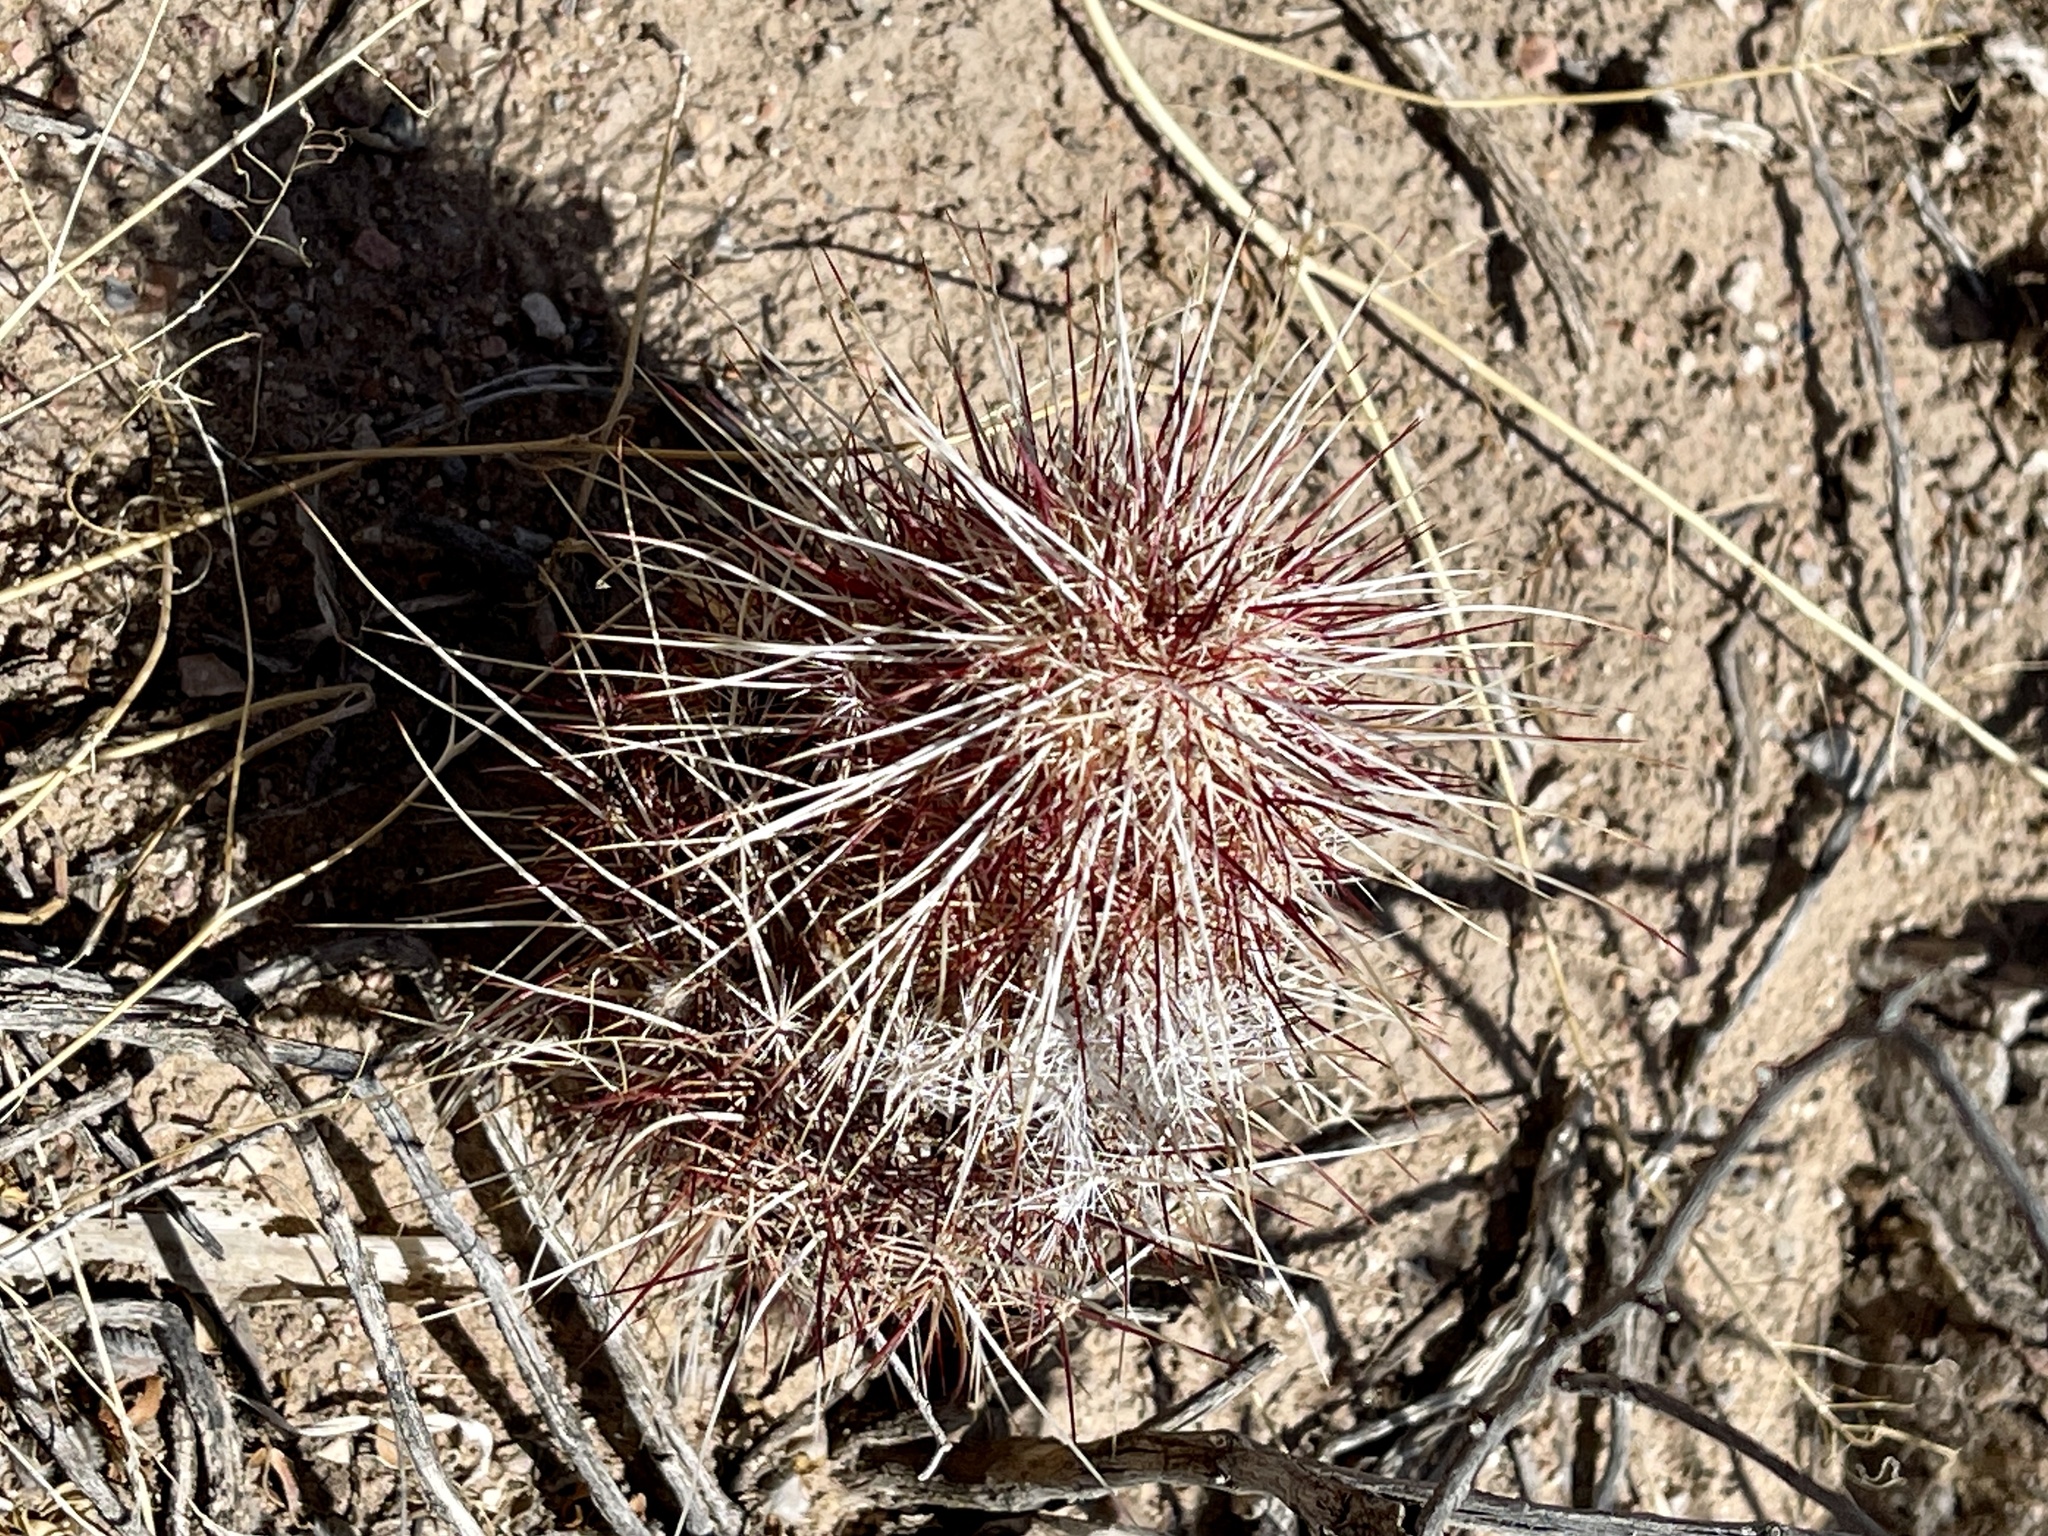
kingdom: Plantae
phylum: Tracheophyta
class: Magnoliopsida
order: Caryophyllales
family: Cactaceae
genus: Echinocereus
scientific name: Echinocereus viridiflorus
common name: Nylon hedgehog cactus
